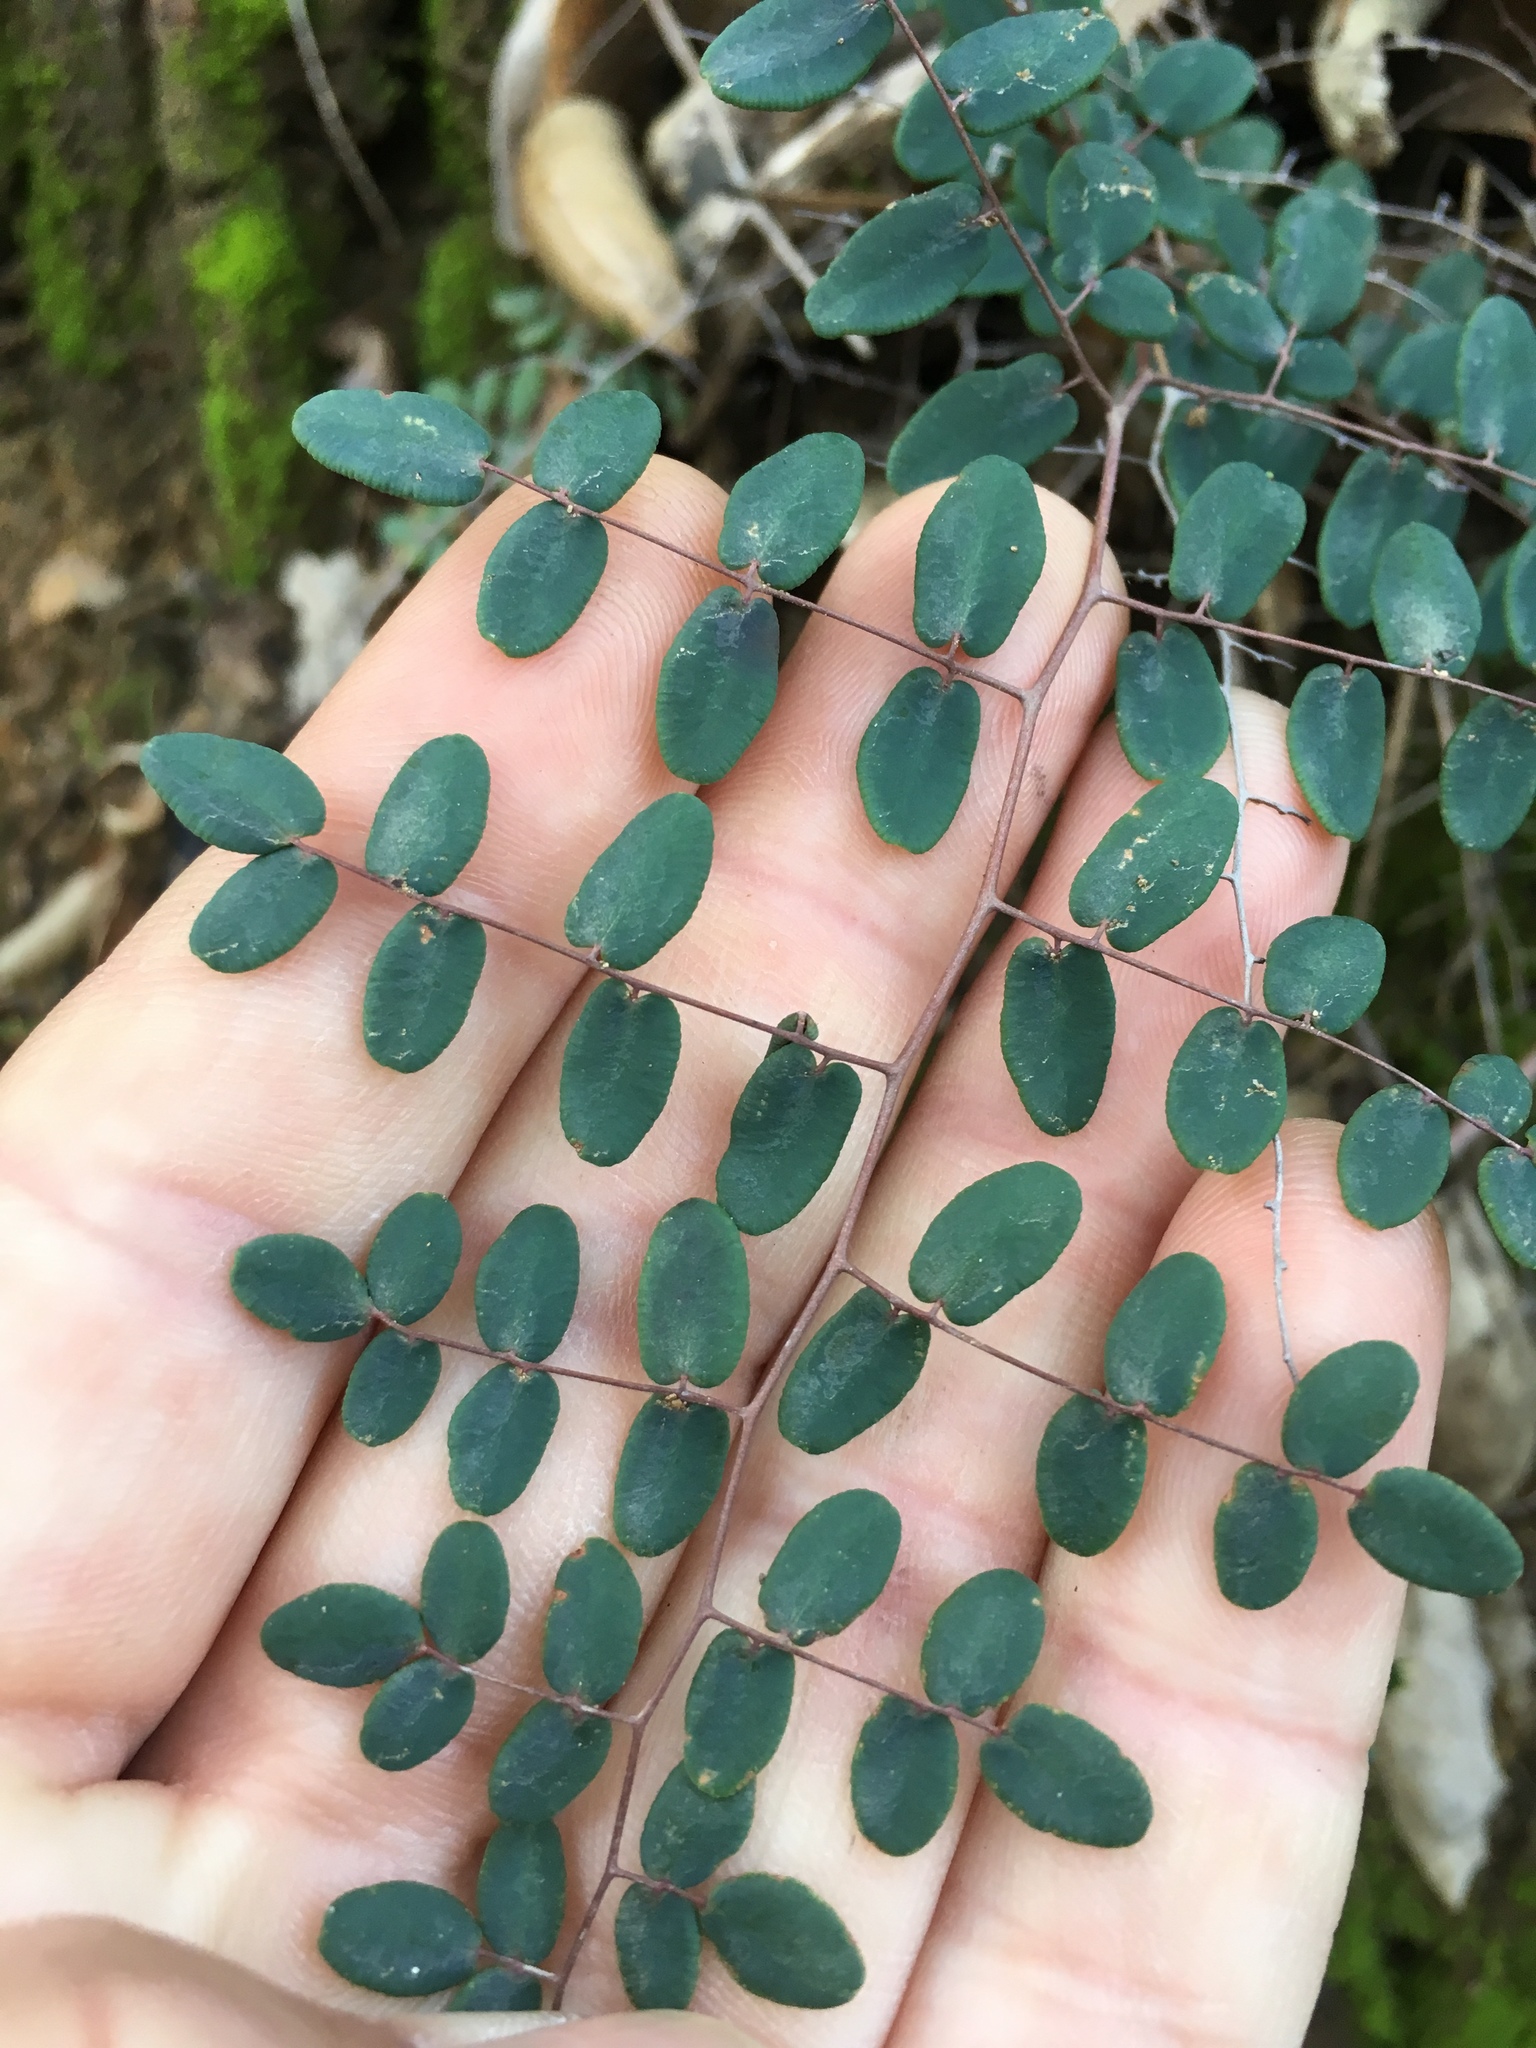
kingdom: Plantae
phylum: Tracheophyta
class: Polypodiopsida
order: Polypodiales
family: Pteridaceae
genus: Pellaea
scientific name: Pellaea andromedifolia
